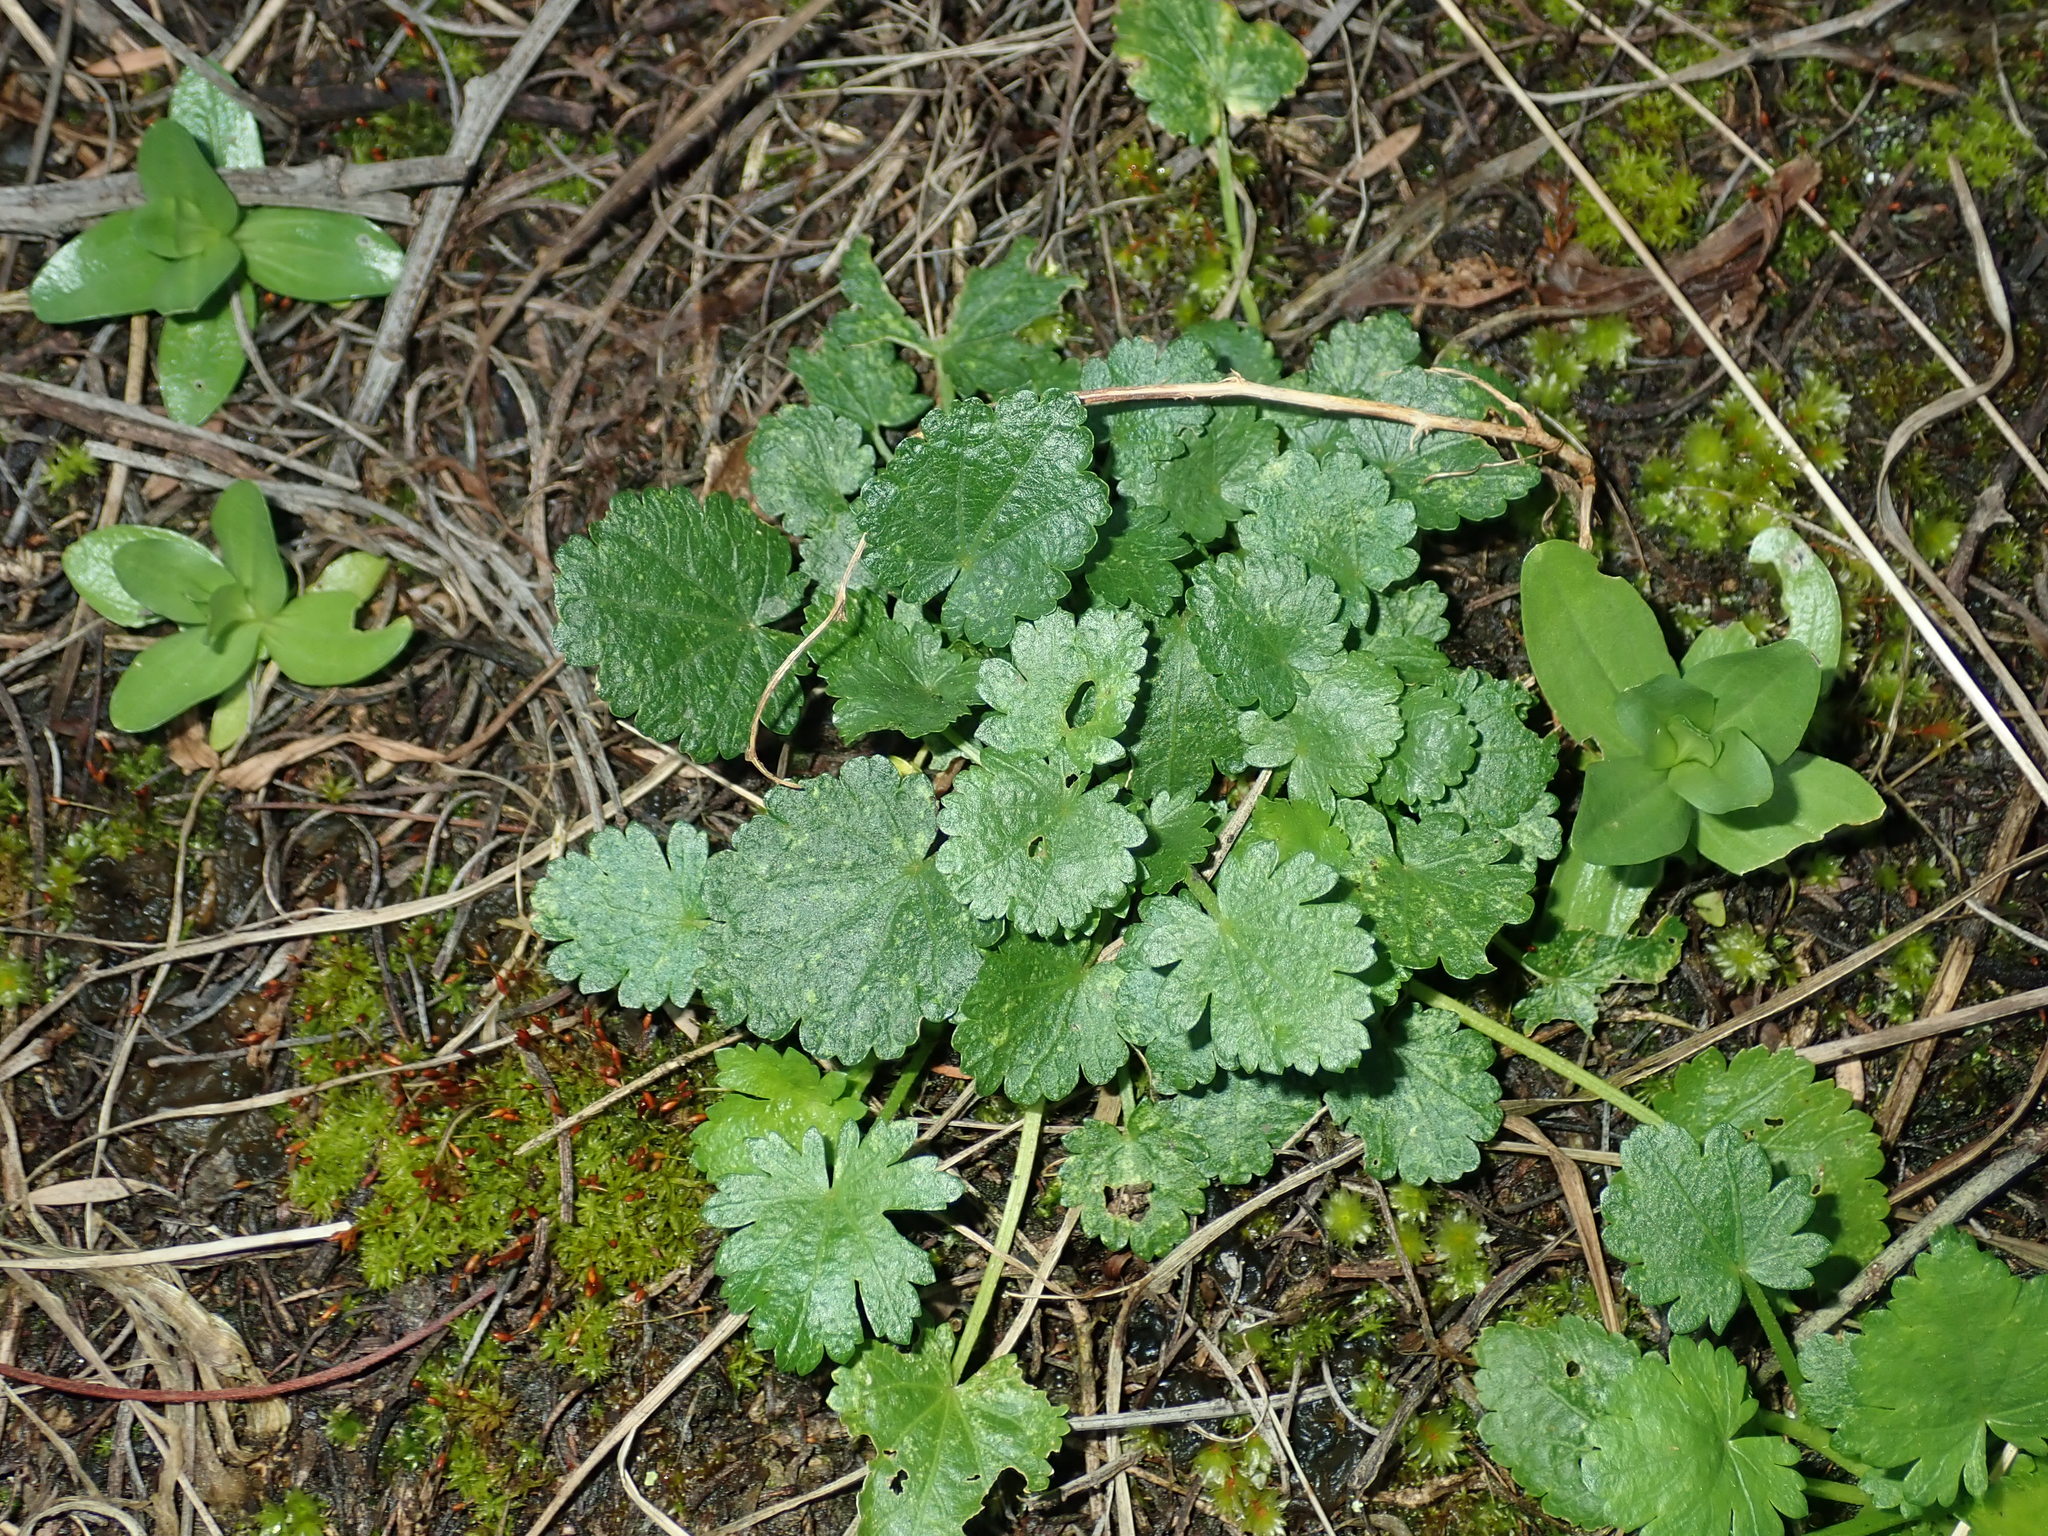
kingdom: Plantae
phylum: Tracheophyta
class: Magnoliopsida
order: Malvales
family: Malvaceae
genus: Modiola
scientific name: Modiola caroliniana
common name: Carolina bristlemallow
